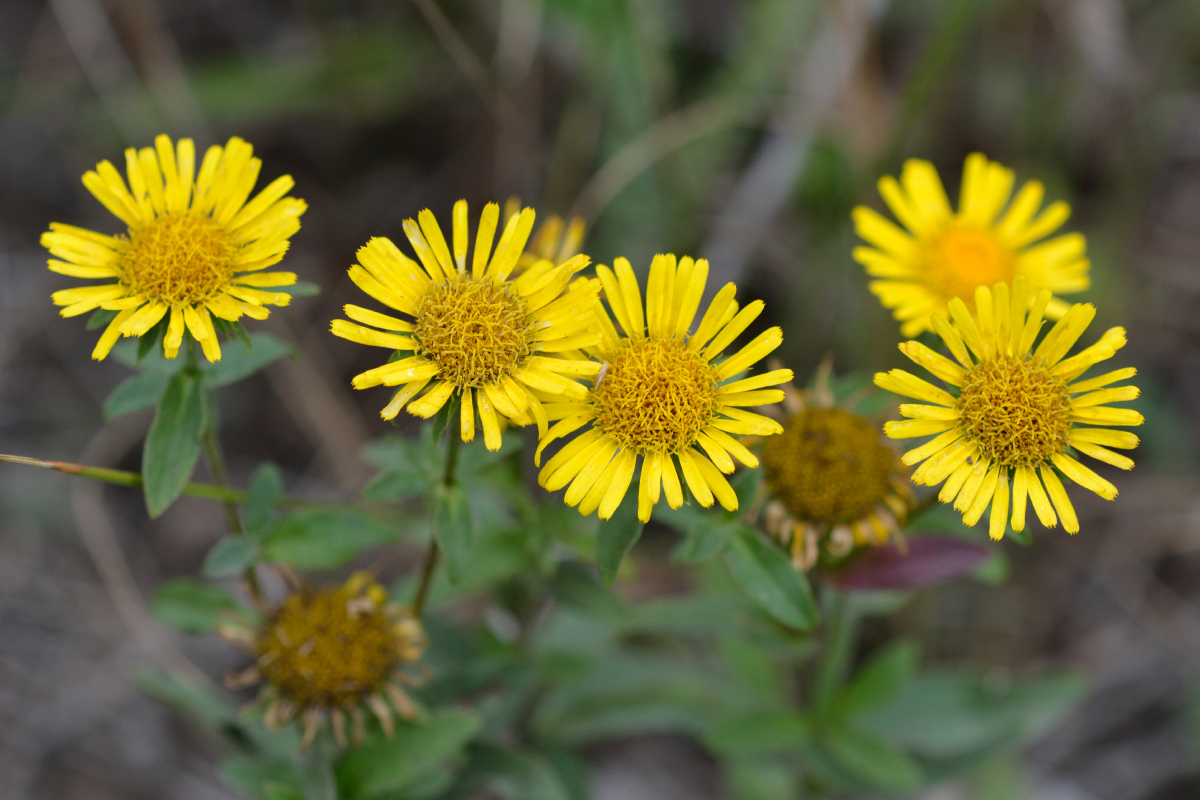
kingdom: Plantae
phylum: Tracheophyta
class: Magnoliopsida
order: Asterales
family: Asteraceae
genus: Pentanema
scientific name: Pentanema britannicum
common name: British elecampane
